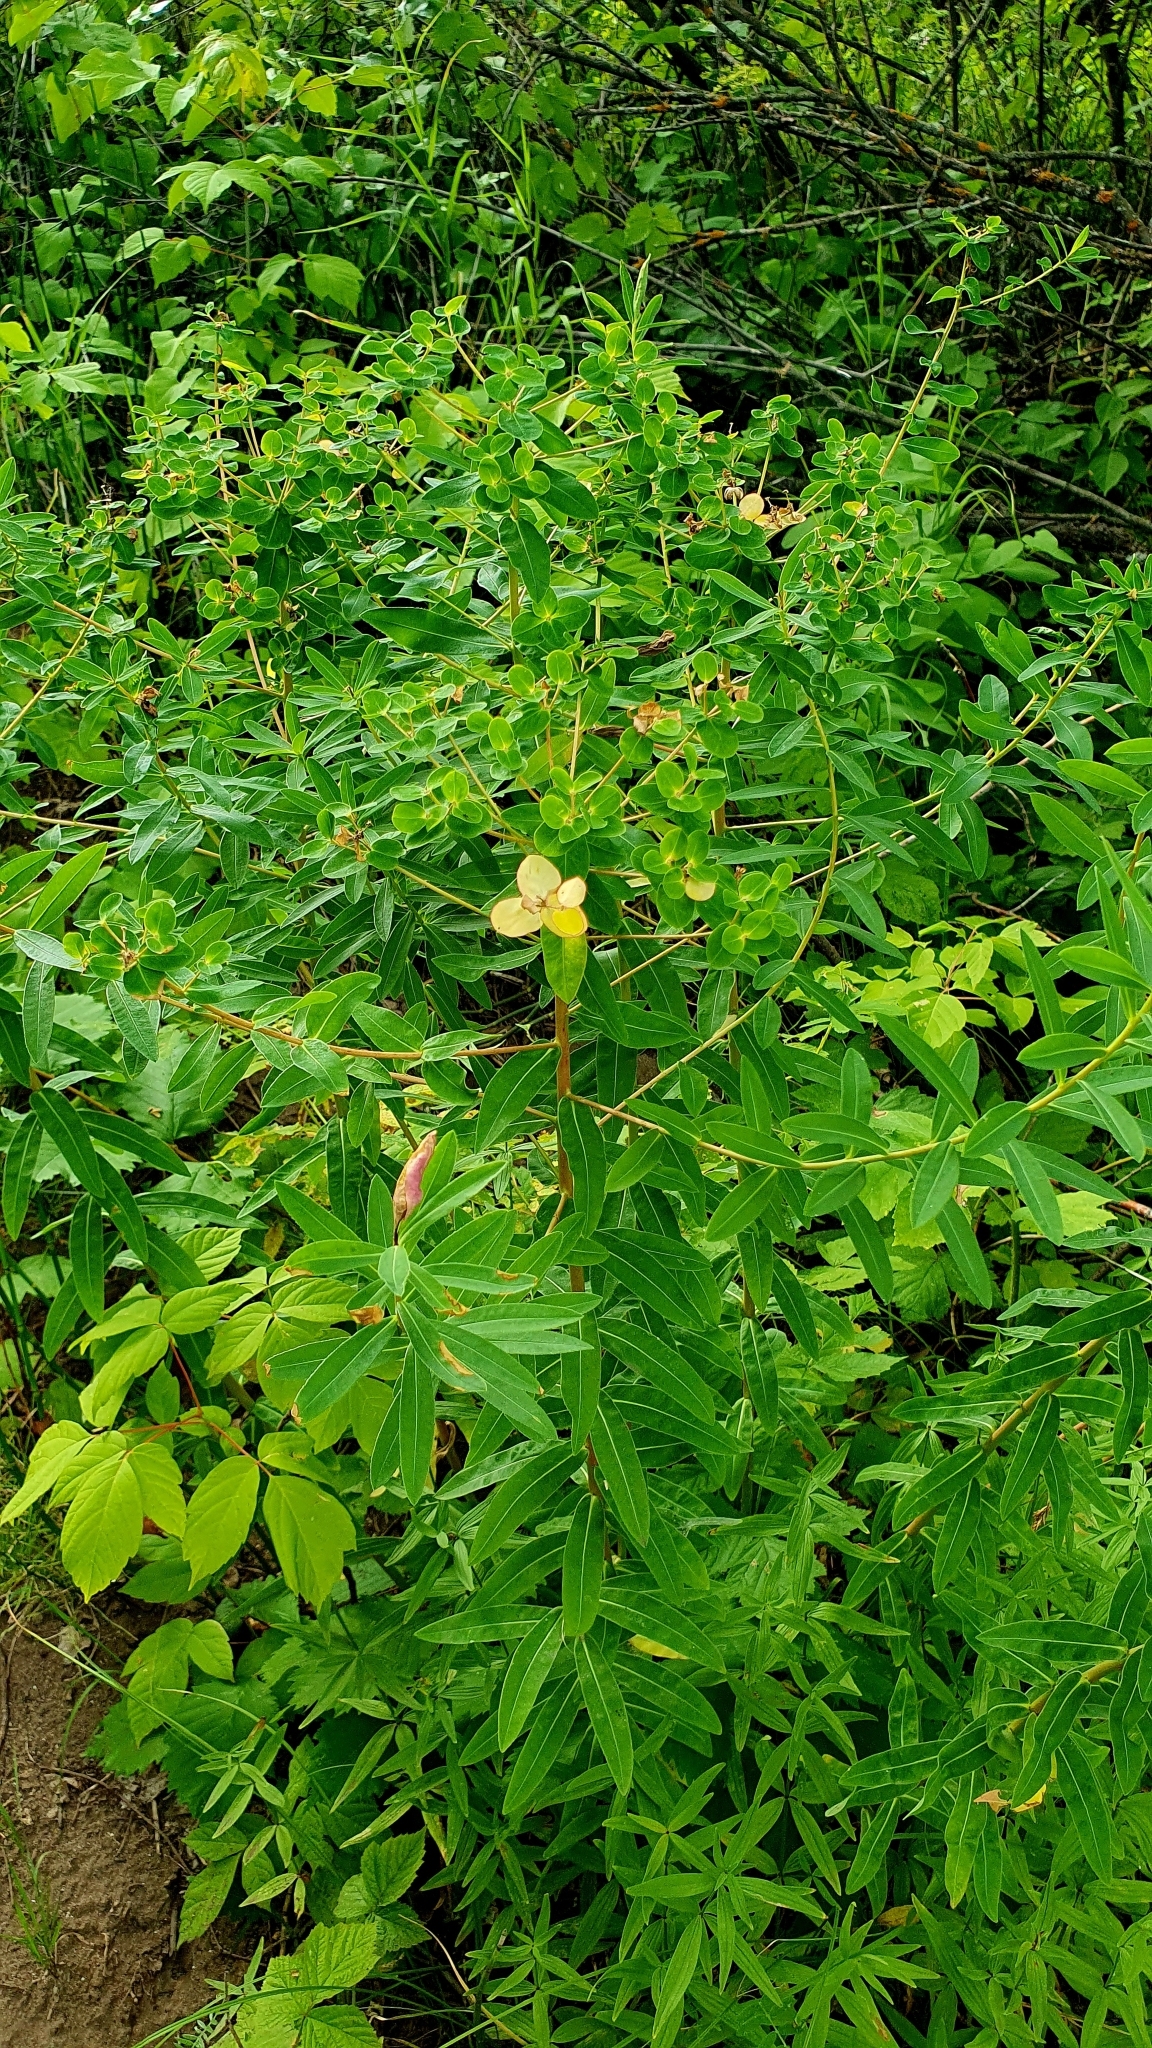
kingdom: Plantae
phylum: Tracheophyta
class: Magnoliopsida
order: Malpighiales
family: Euphorbiaceae
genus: Euphorbia
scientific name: Euphorbia semivillosa
